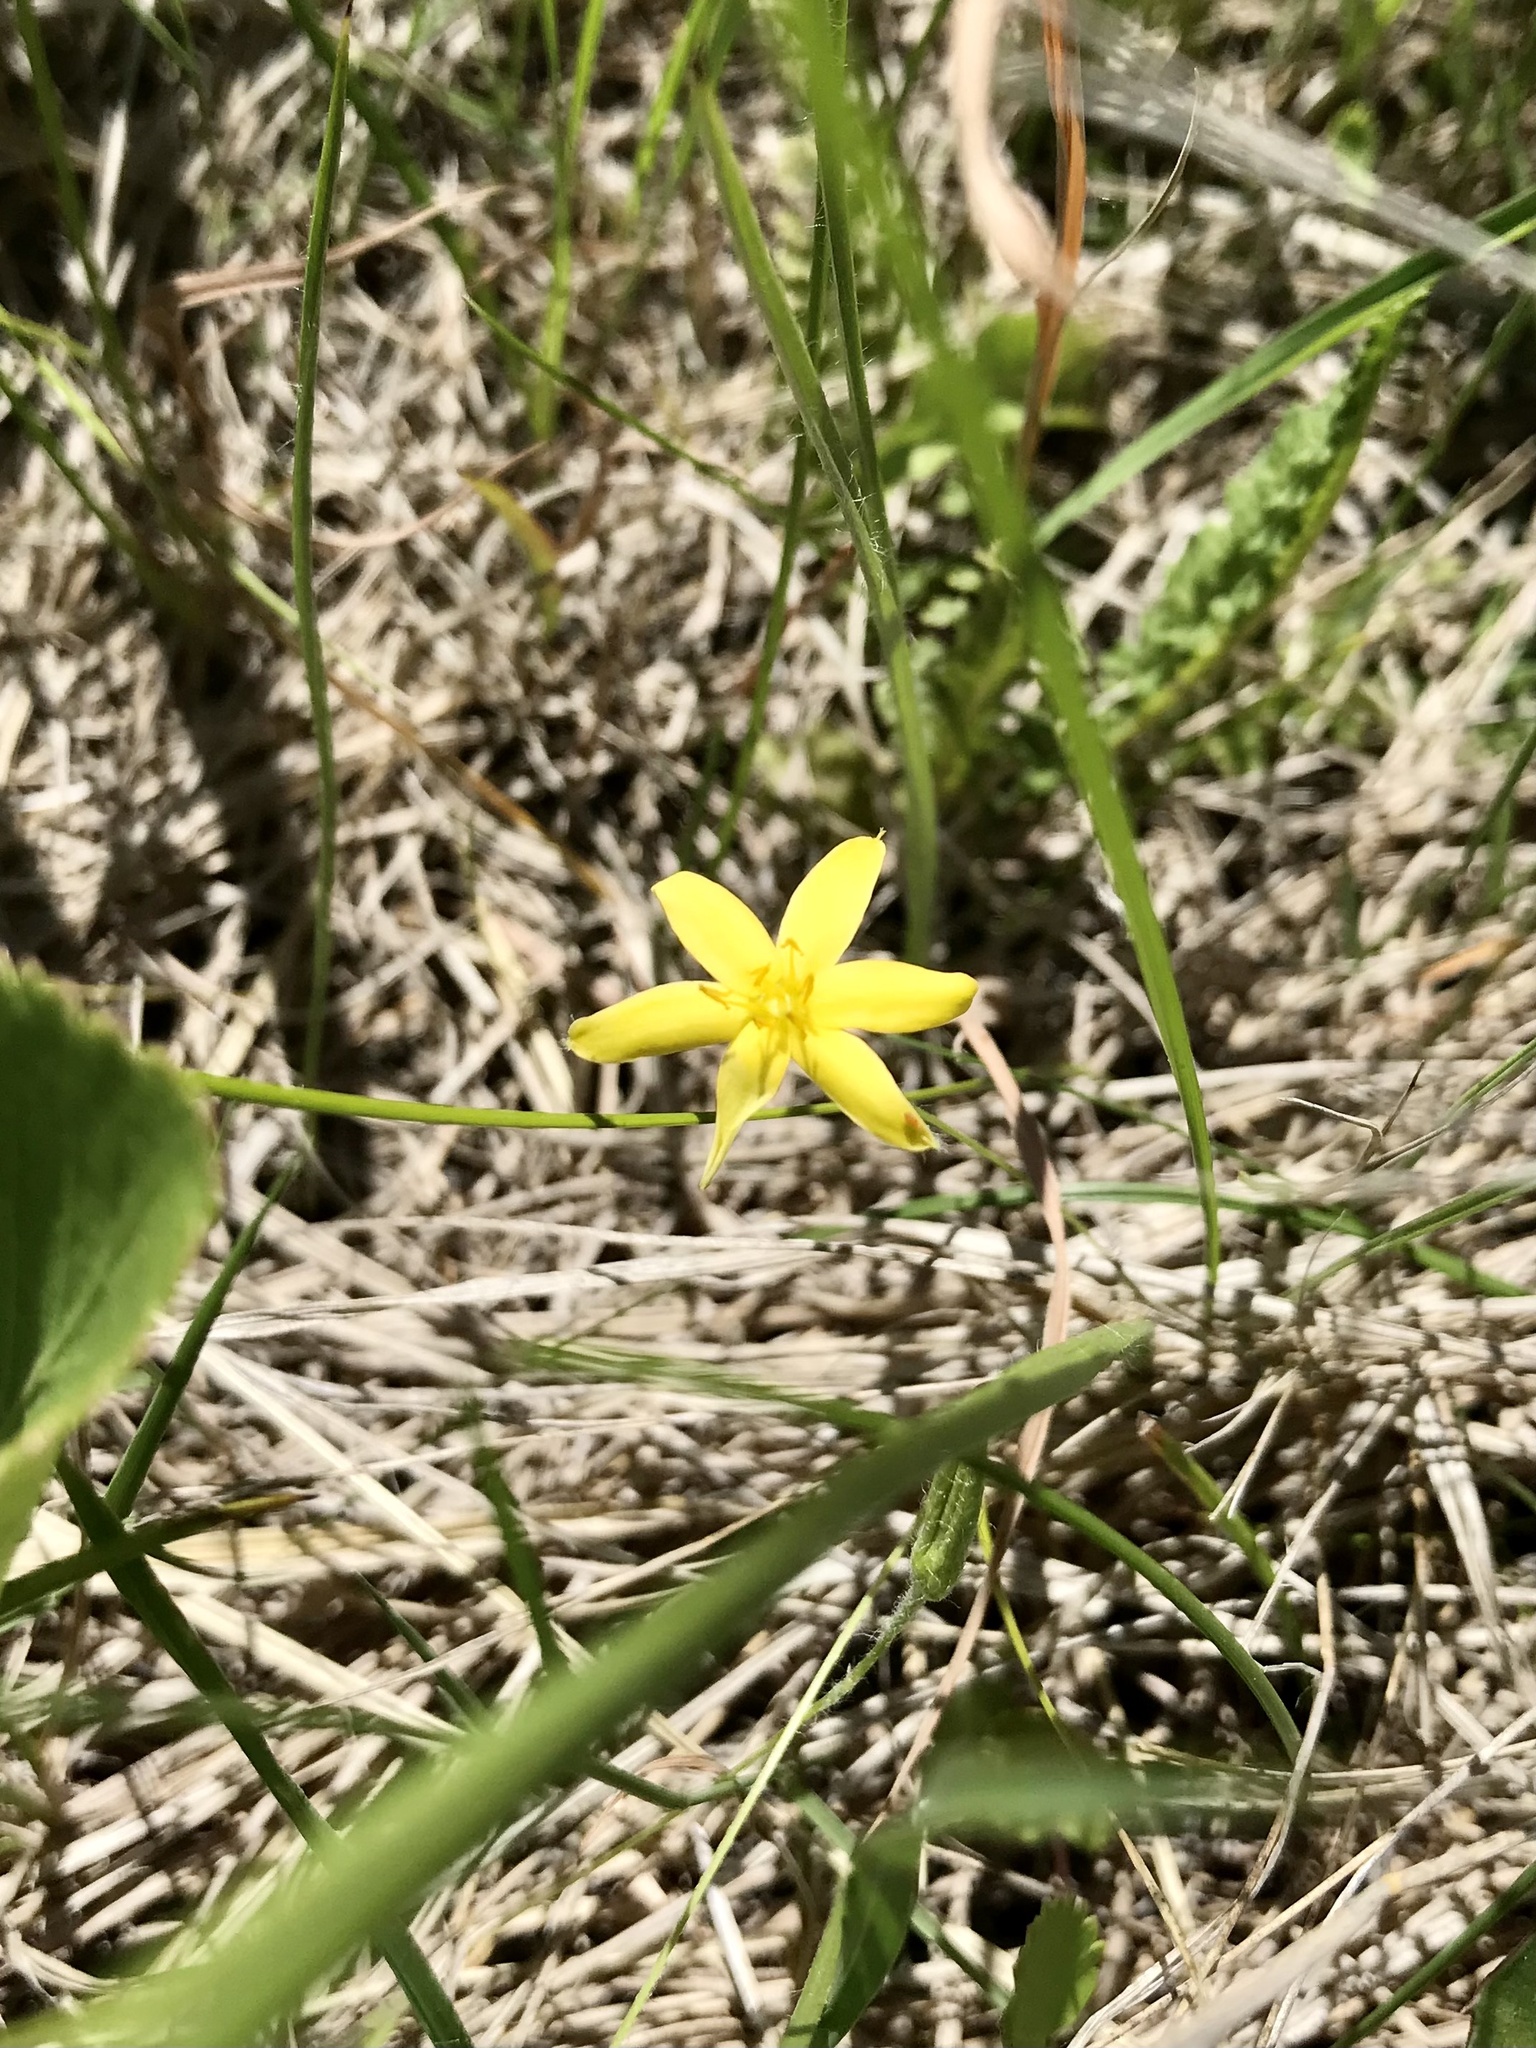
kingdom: Plantae
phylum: Tracheophyta
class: Liliopsida
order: Asparagales
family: Hypoxidaceae
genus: Hypoxis
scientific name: Hypoxis hirsuta
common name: Common goldstar
